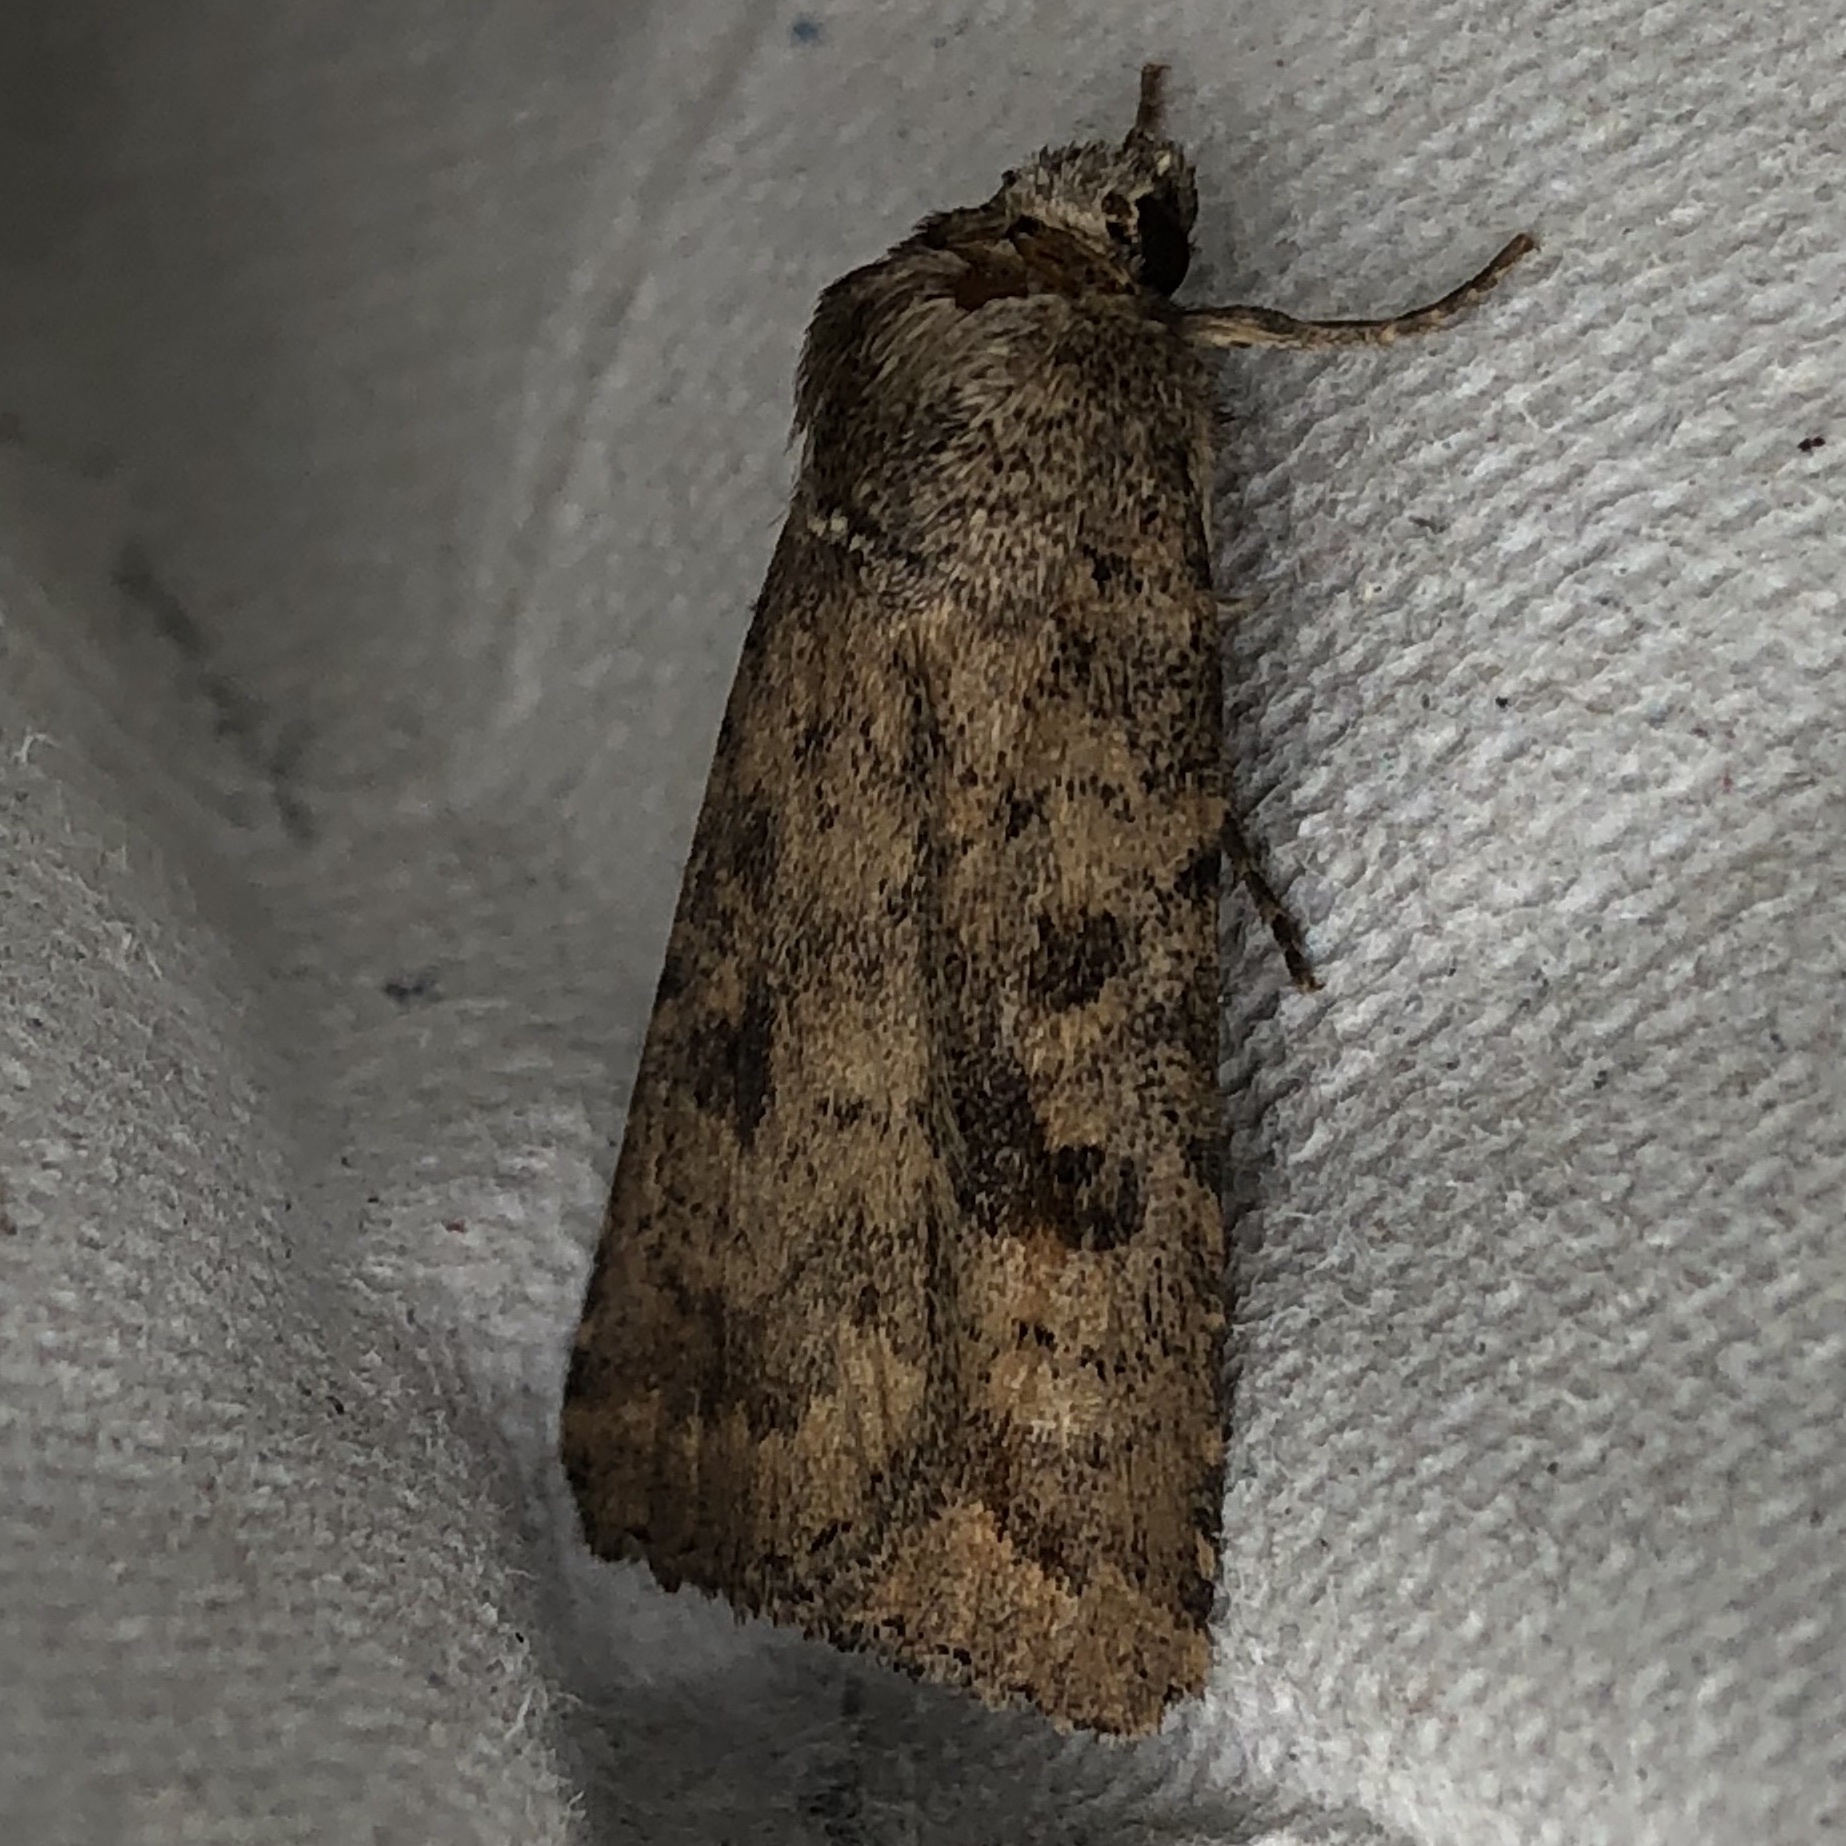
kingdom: Animalia
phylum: Arthropoda
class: Insecta
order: Lepidoptera
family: Noctuidae
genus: Caradrina
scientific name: Caradrina morpheus
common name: Mottled rustic
